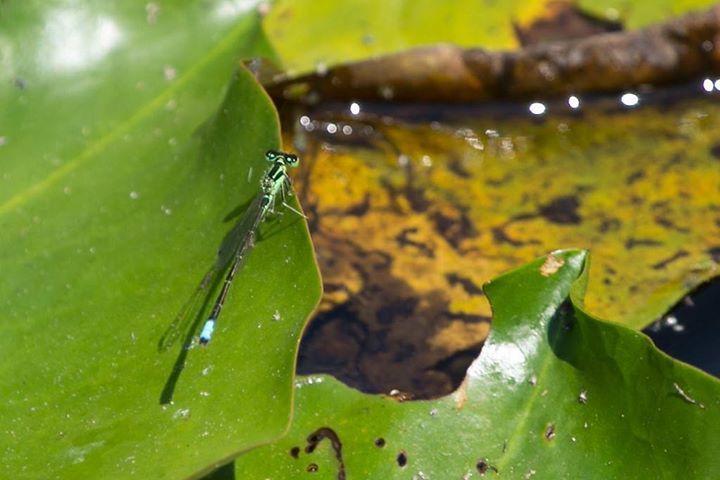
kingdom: Animalia
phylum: Arthropoda
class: Insecta
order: Odonata
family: Coenagrionidae
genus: Ischnura
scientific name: Ischnura verticalis
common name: Eastern forktail
